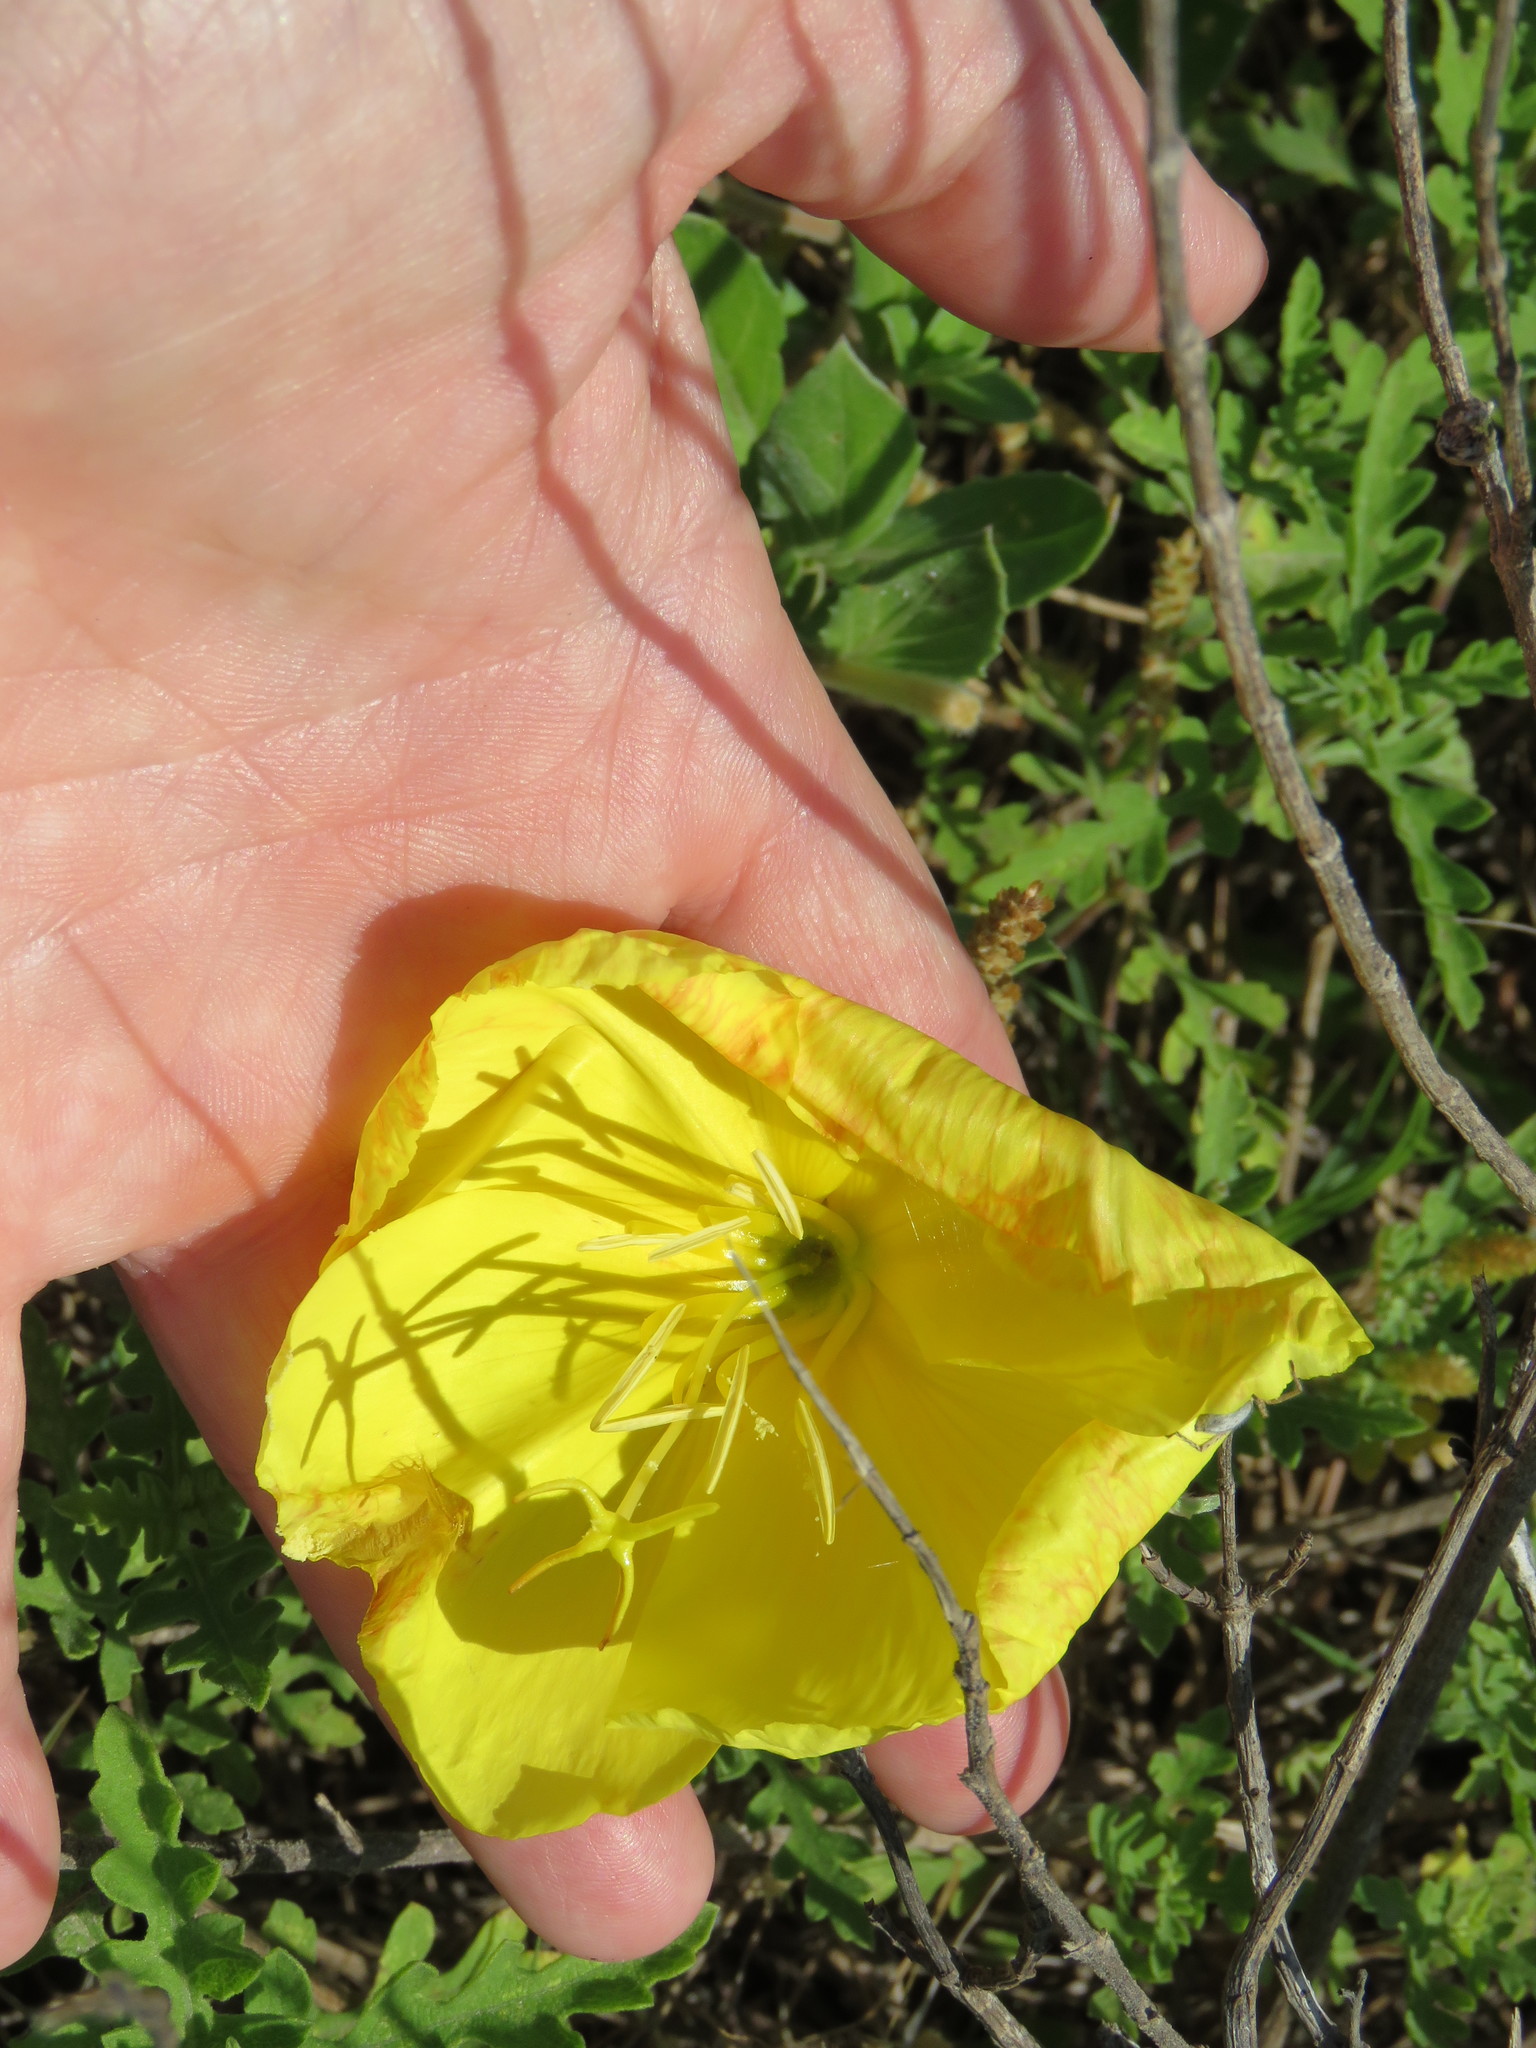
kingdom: Plantae
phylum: Tracheophyta
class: Magnoliopsida
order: Myrtales
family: Onagraceae
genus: Oenothera
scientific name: Oenothera drummondii
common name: Beach evening-primrose
